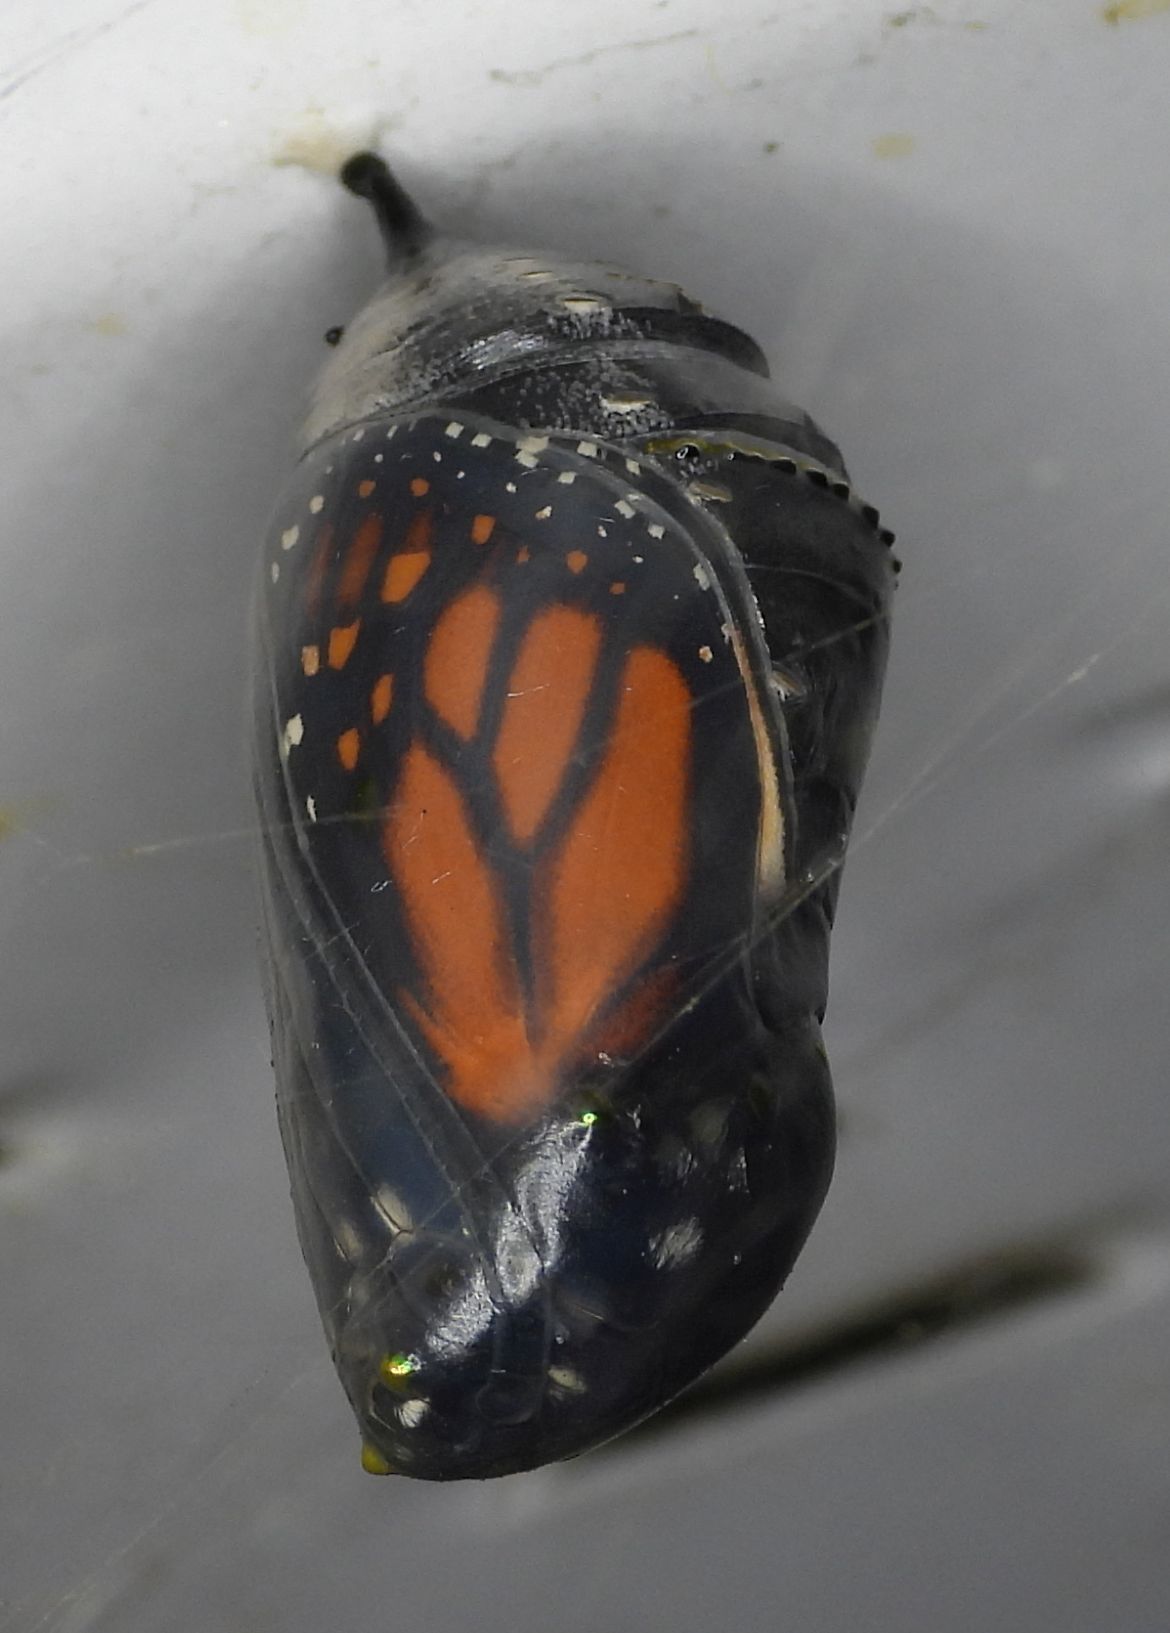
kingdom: Animalia
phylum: Arthropoda
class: Insecta
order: Lepidoptera
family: Nymphalidae
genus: Danaus
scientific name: Danaus plexippus
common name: Monarch
